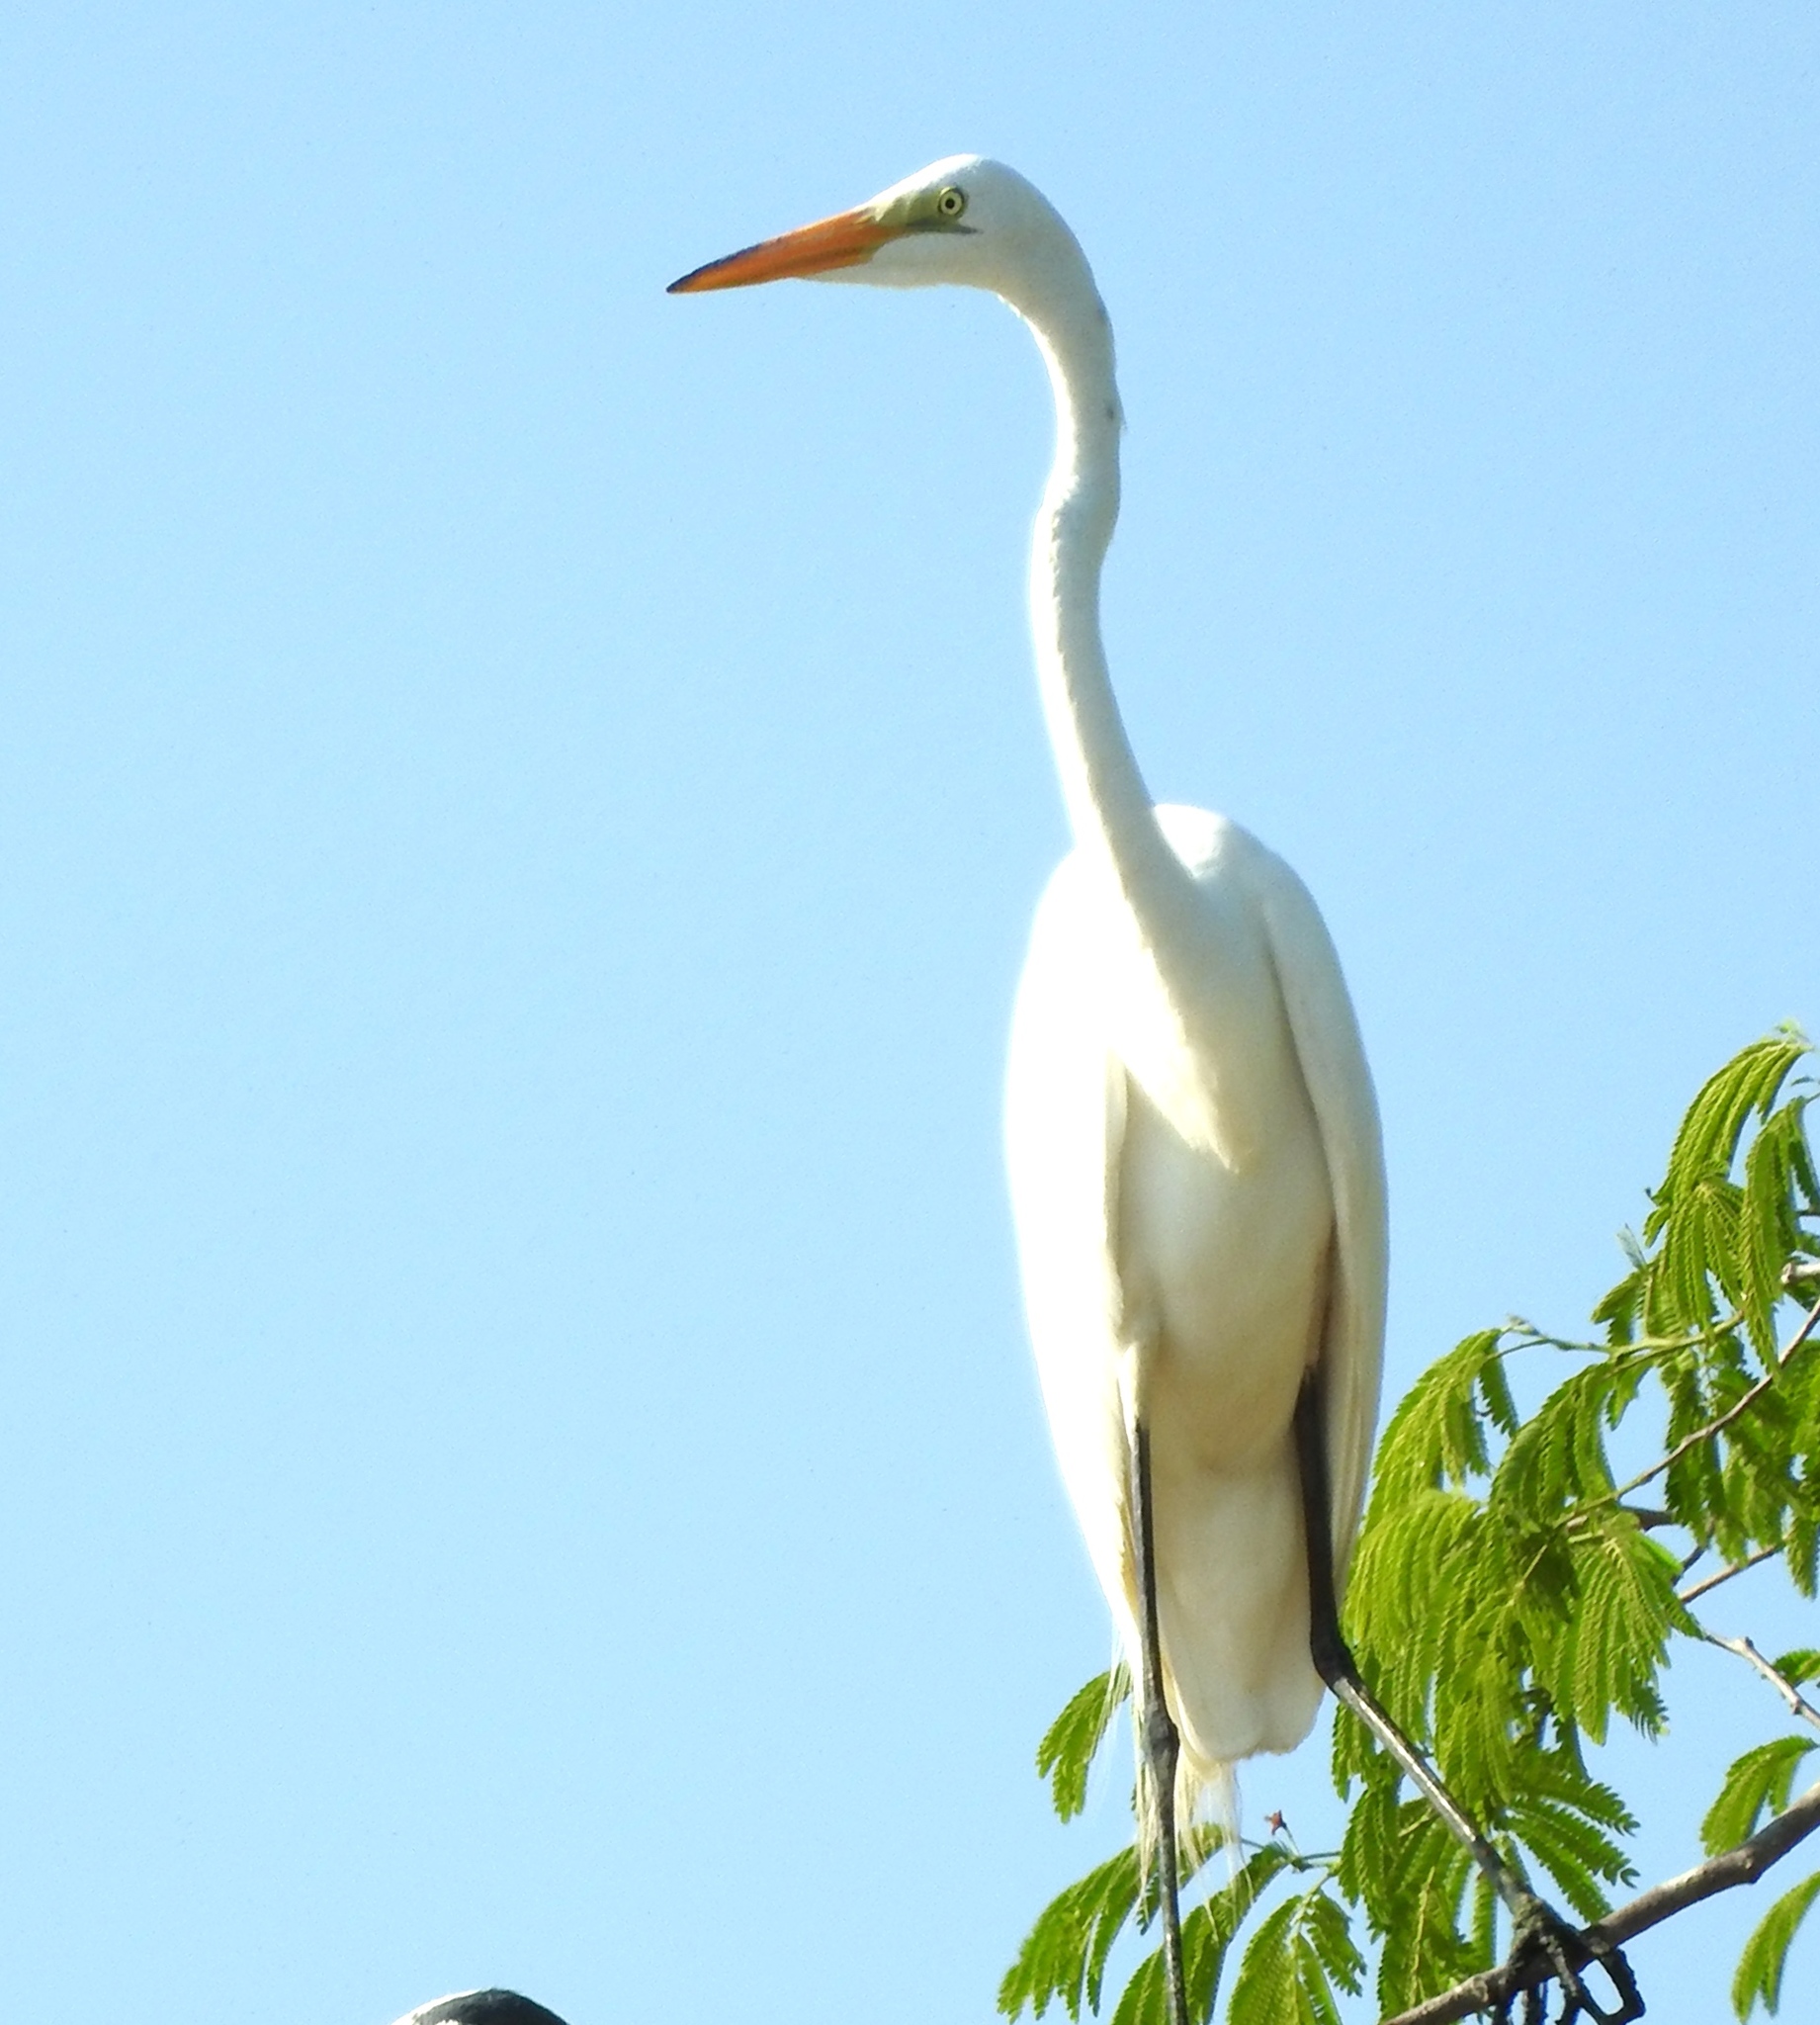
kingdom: Animalia
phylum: Chordata
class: Aves
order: Pelecaniformes
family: Ardeidae
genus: Ardea
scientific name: Ardea alba
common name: Great egret
